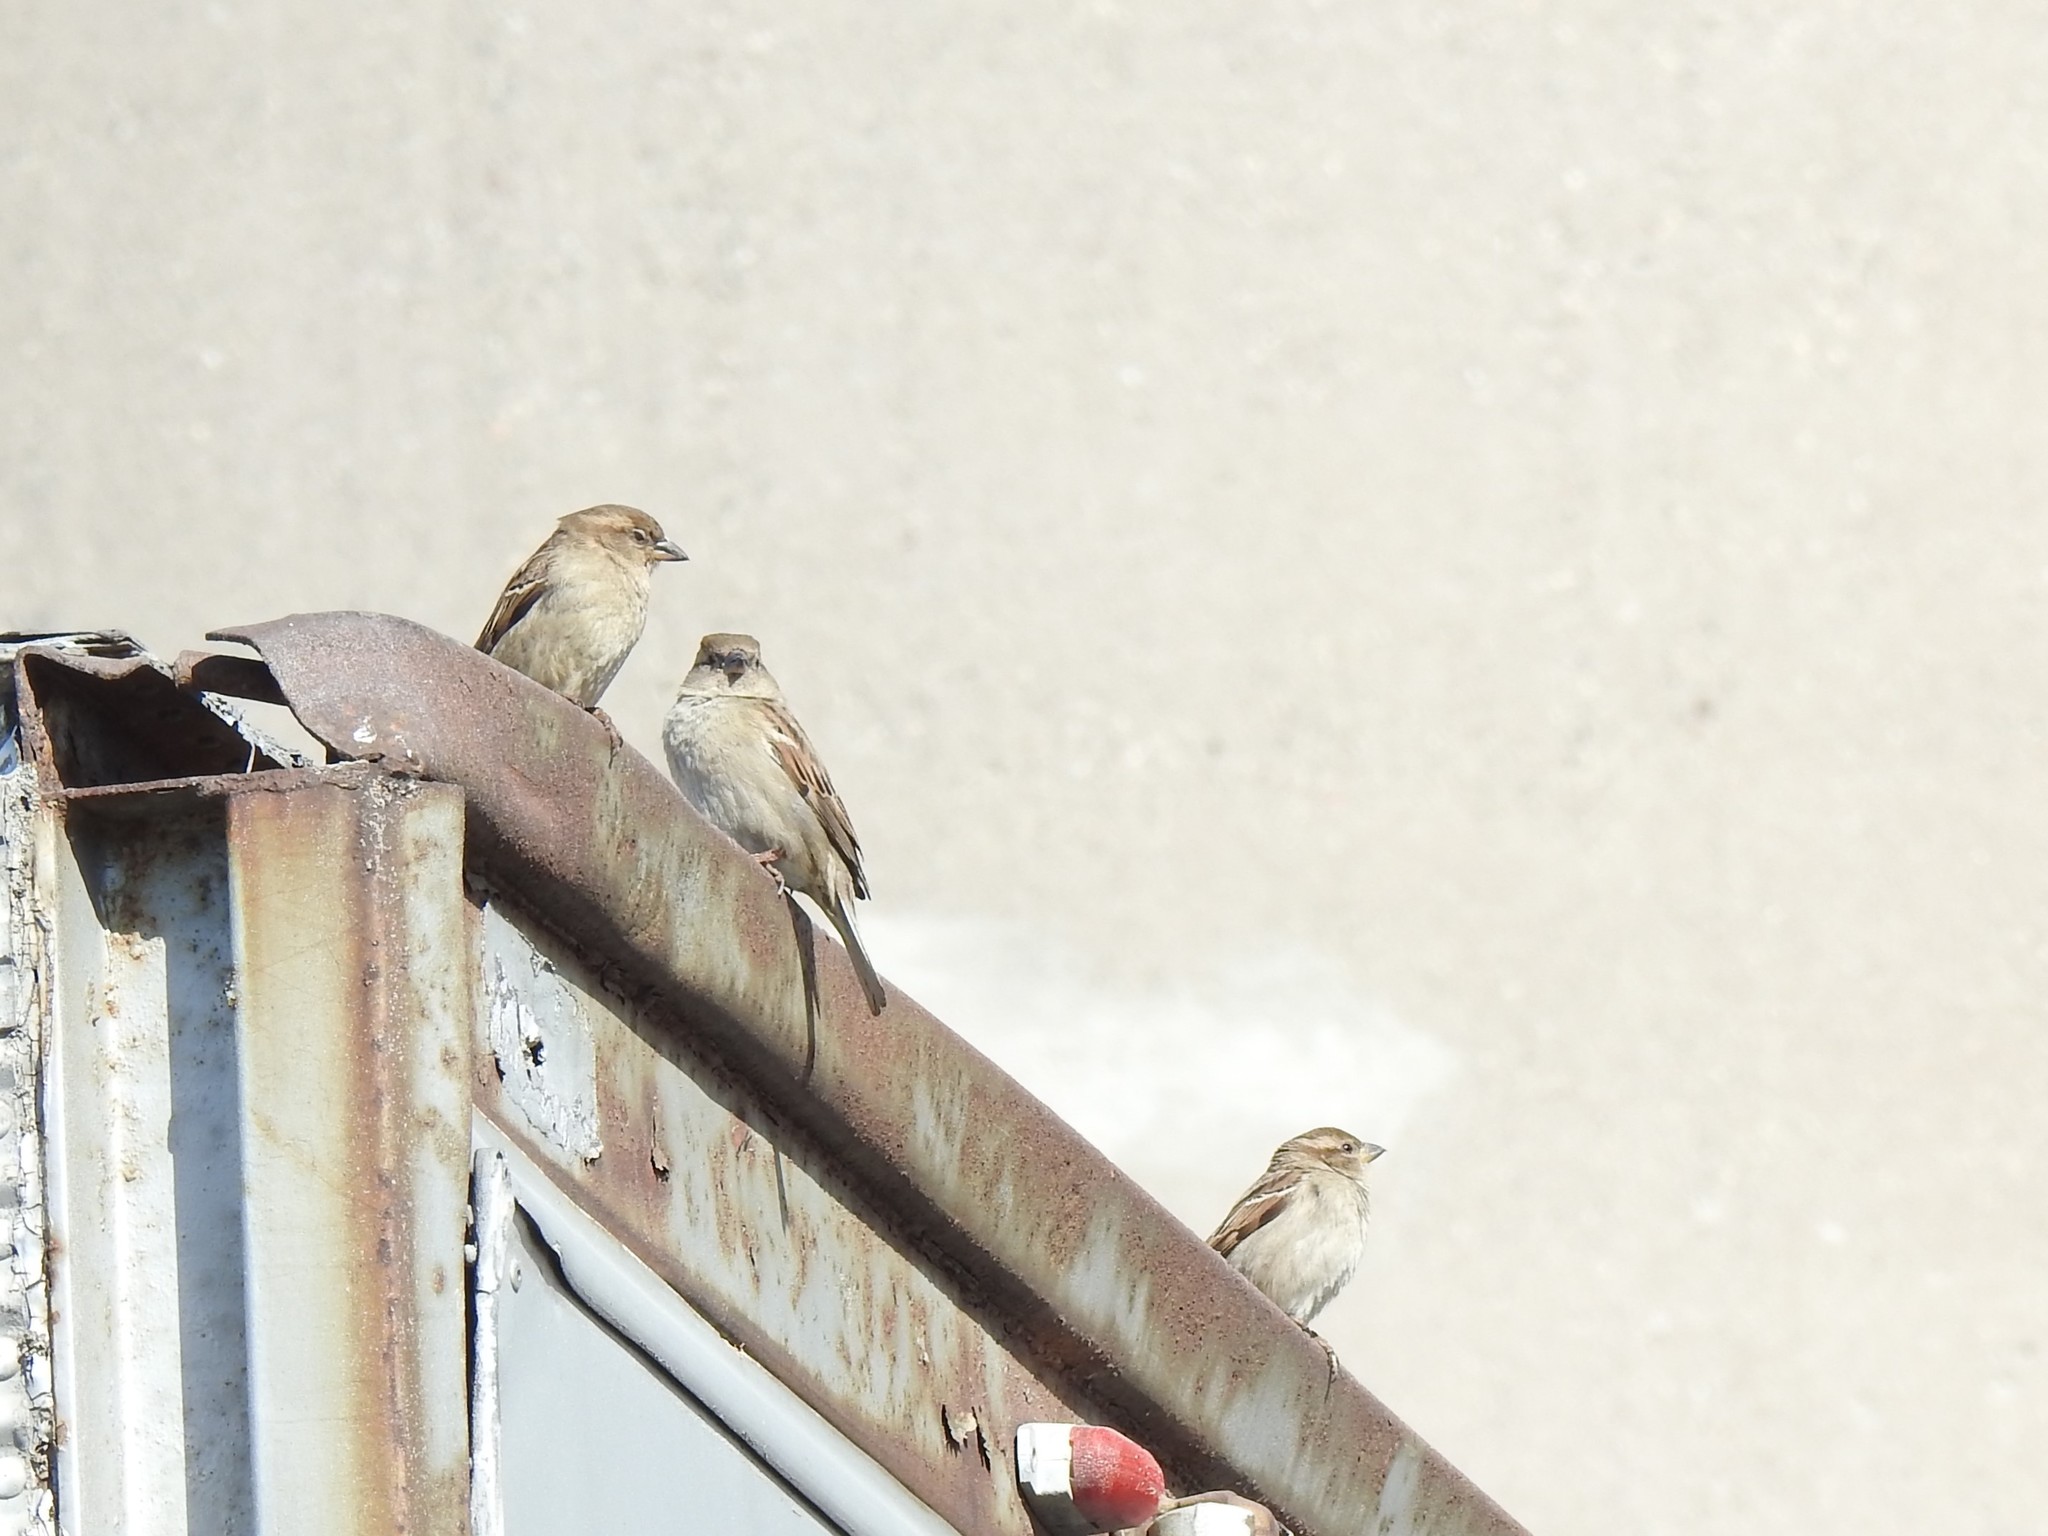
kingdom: Animalia
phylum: Chordata
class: Aves
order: Passeriformes
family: Passeridae
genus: Passer
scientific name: Passer domesticus
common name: House sparrow
